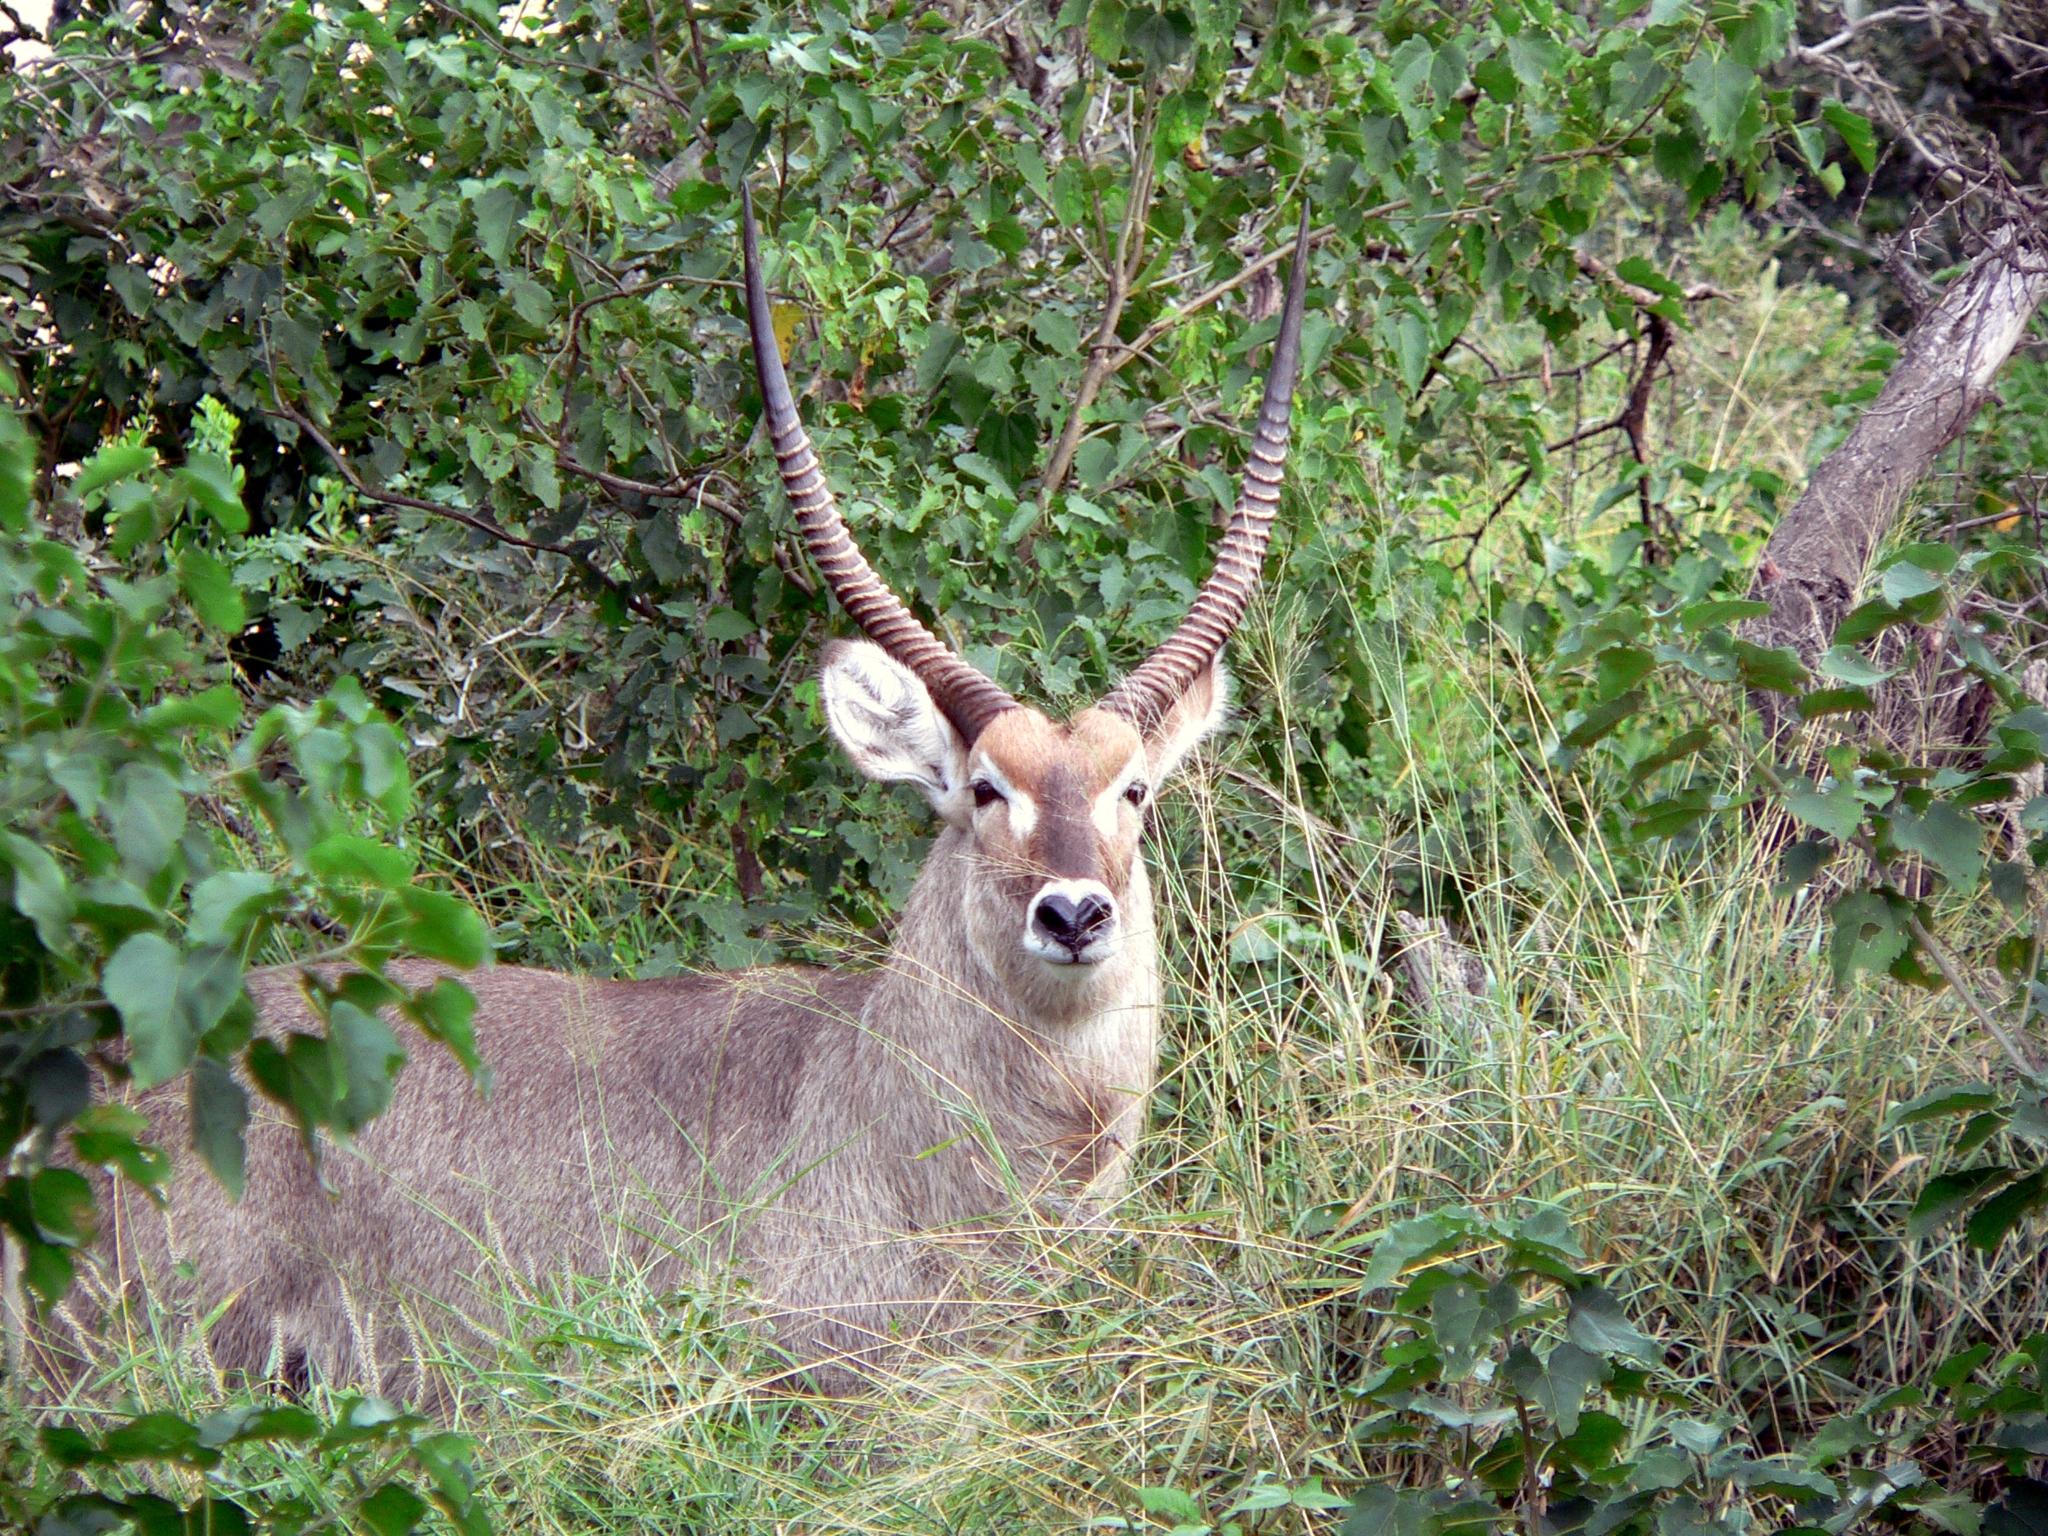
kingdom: Animalia
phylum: Chordata
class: Mammalia
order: Artiodactyla
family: Bovidae
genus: Kobus
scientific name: Kobus ellipsiprymnus
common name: Waterbuck
